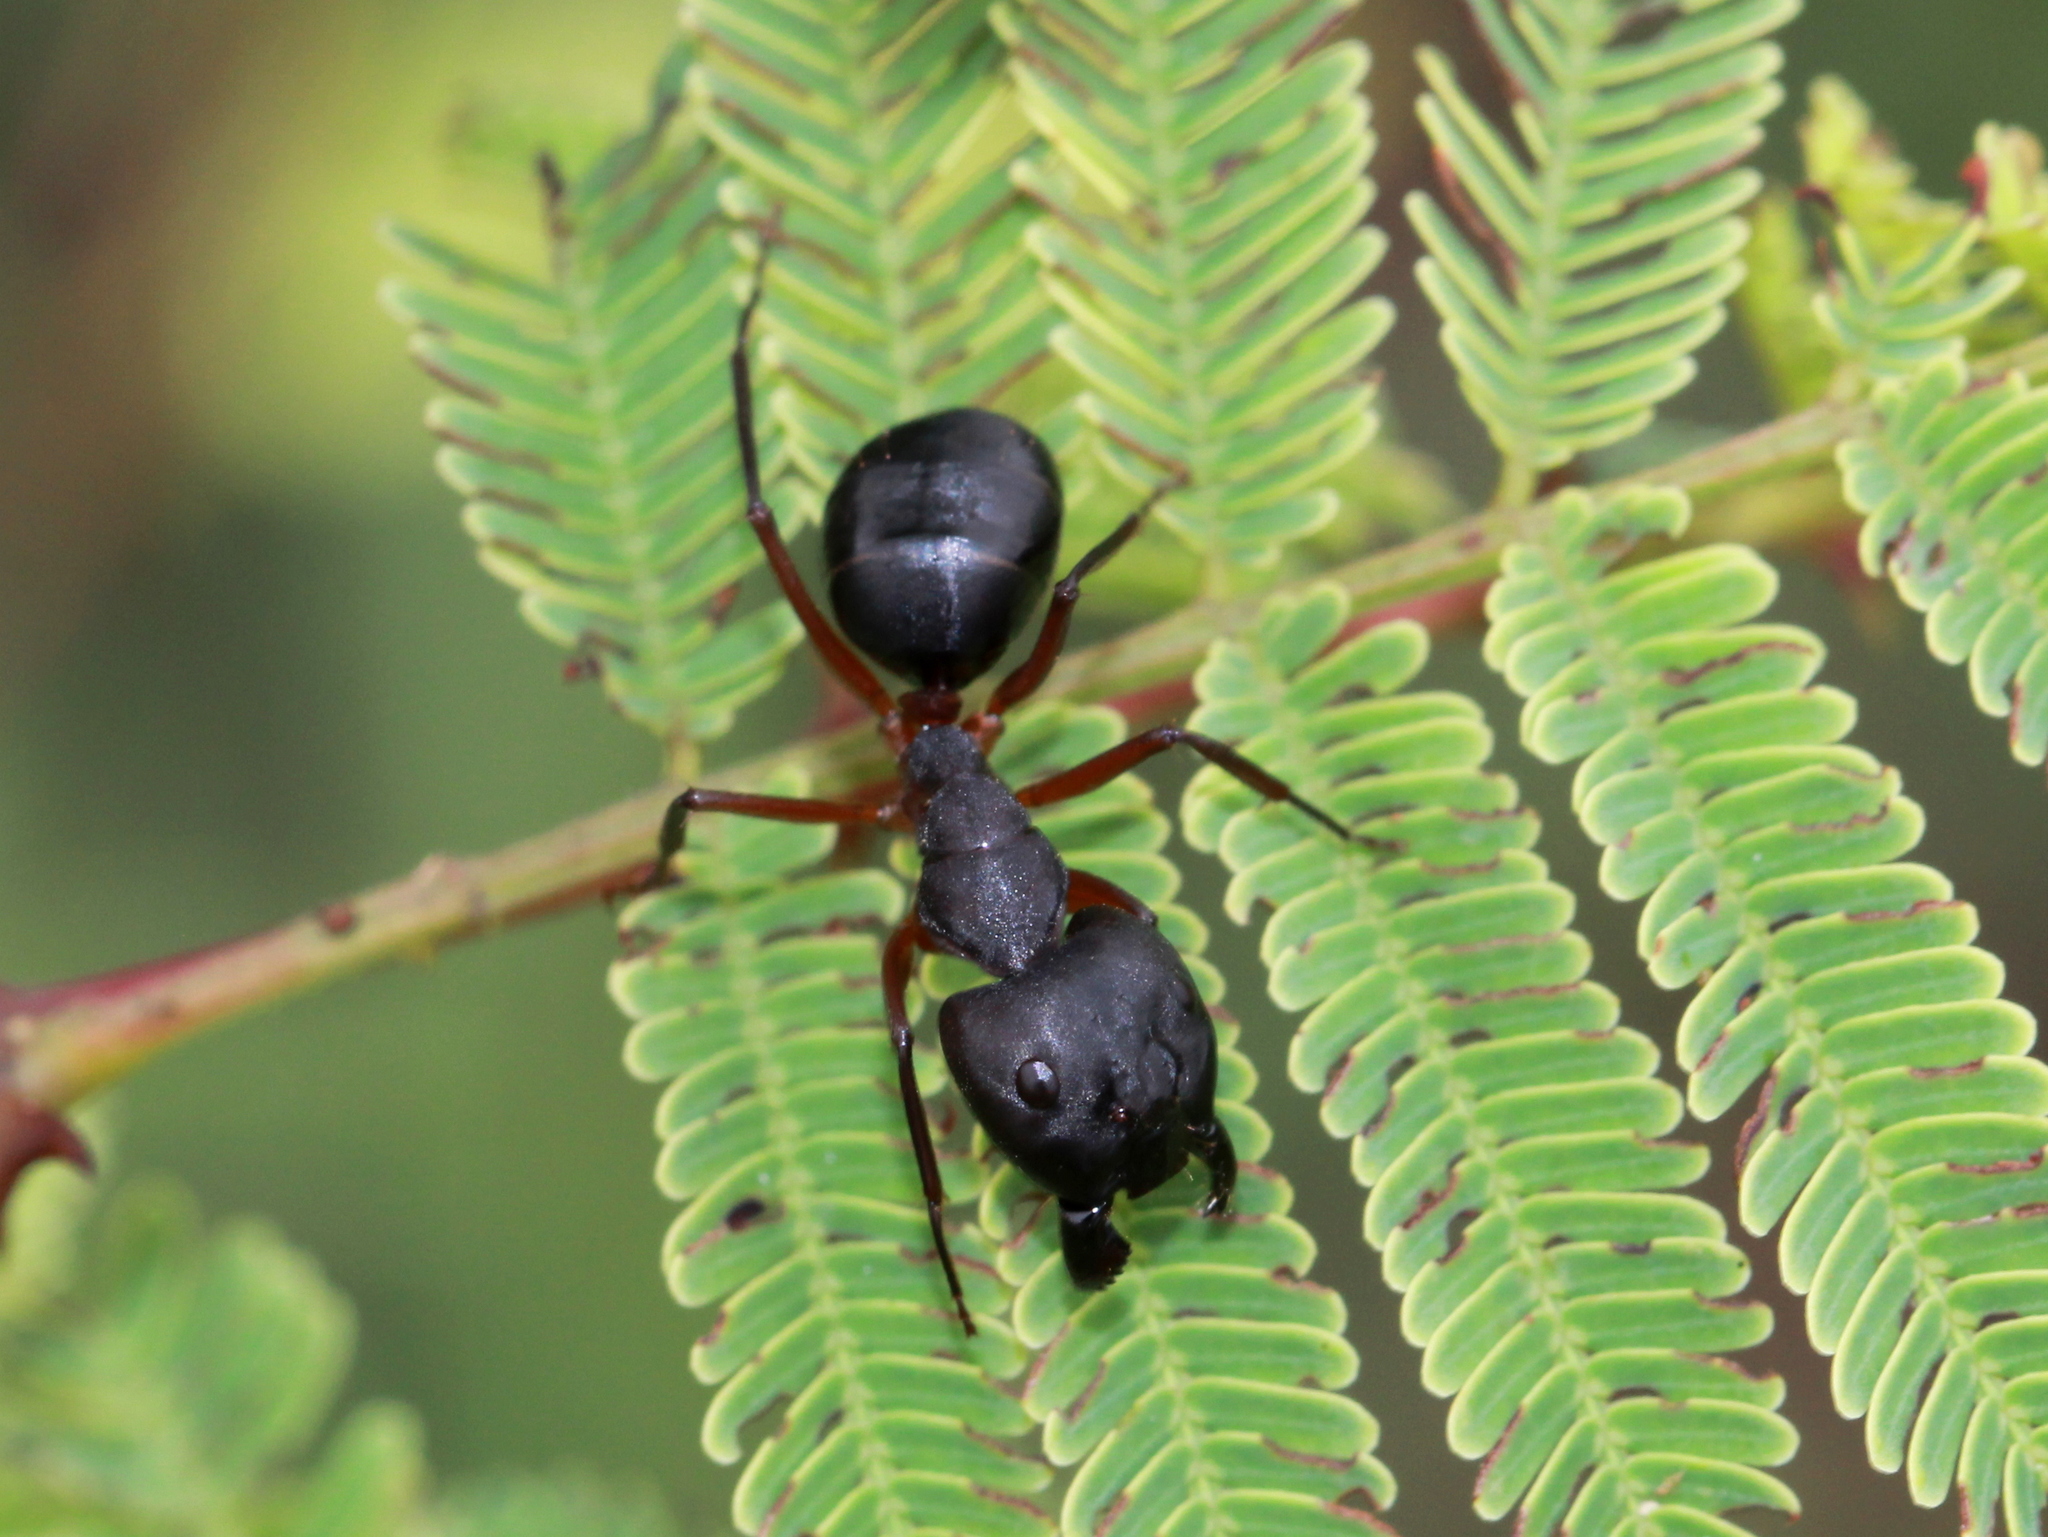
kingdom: Animalia
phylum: Arthropoda
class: Insecta
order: Hymenoptera
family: Formicidae
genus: Camponotus
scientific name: Camponotus compressus
